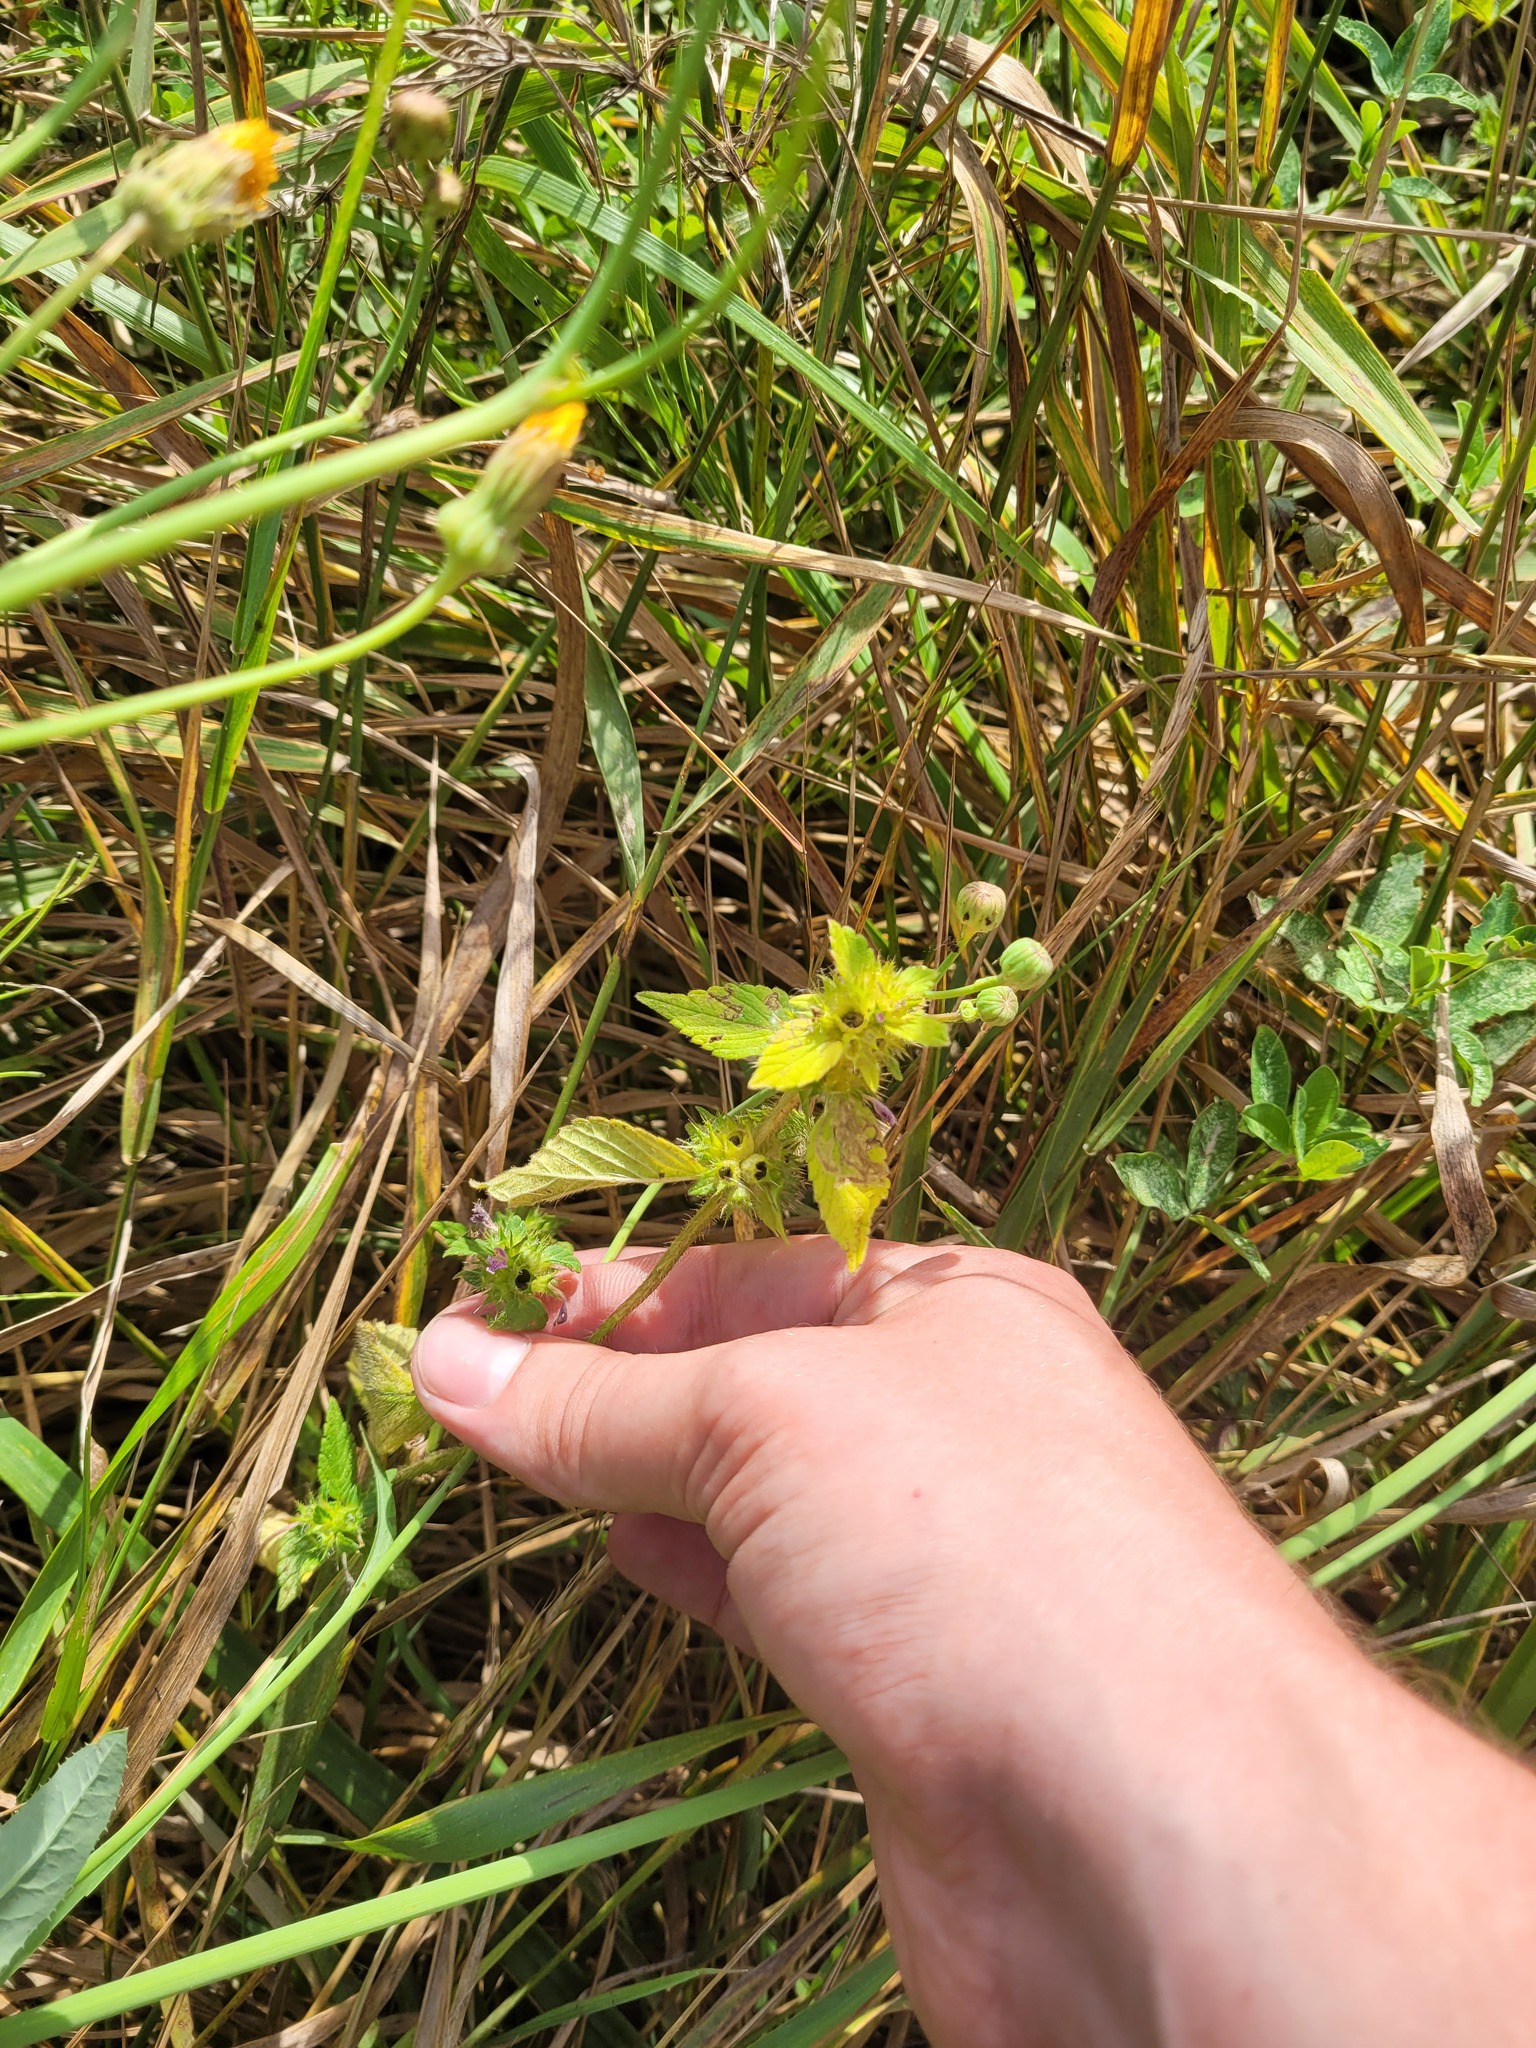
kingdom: Plantae
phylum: Tracheophyta
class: Magnoliopsida
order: Lamiales
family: Lamiaceae
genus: Galeopsis
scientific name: Galeopsis bifida
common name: Bifid hemp-nettle
